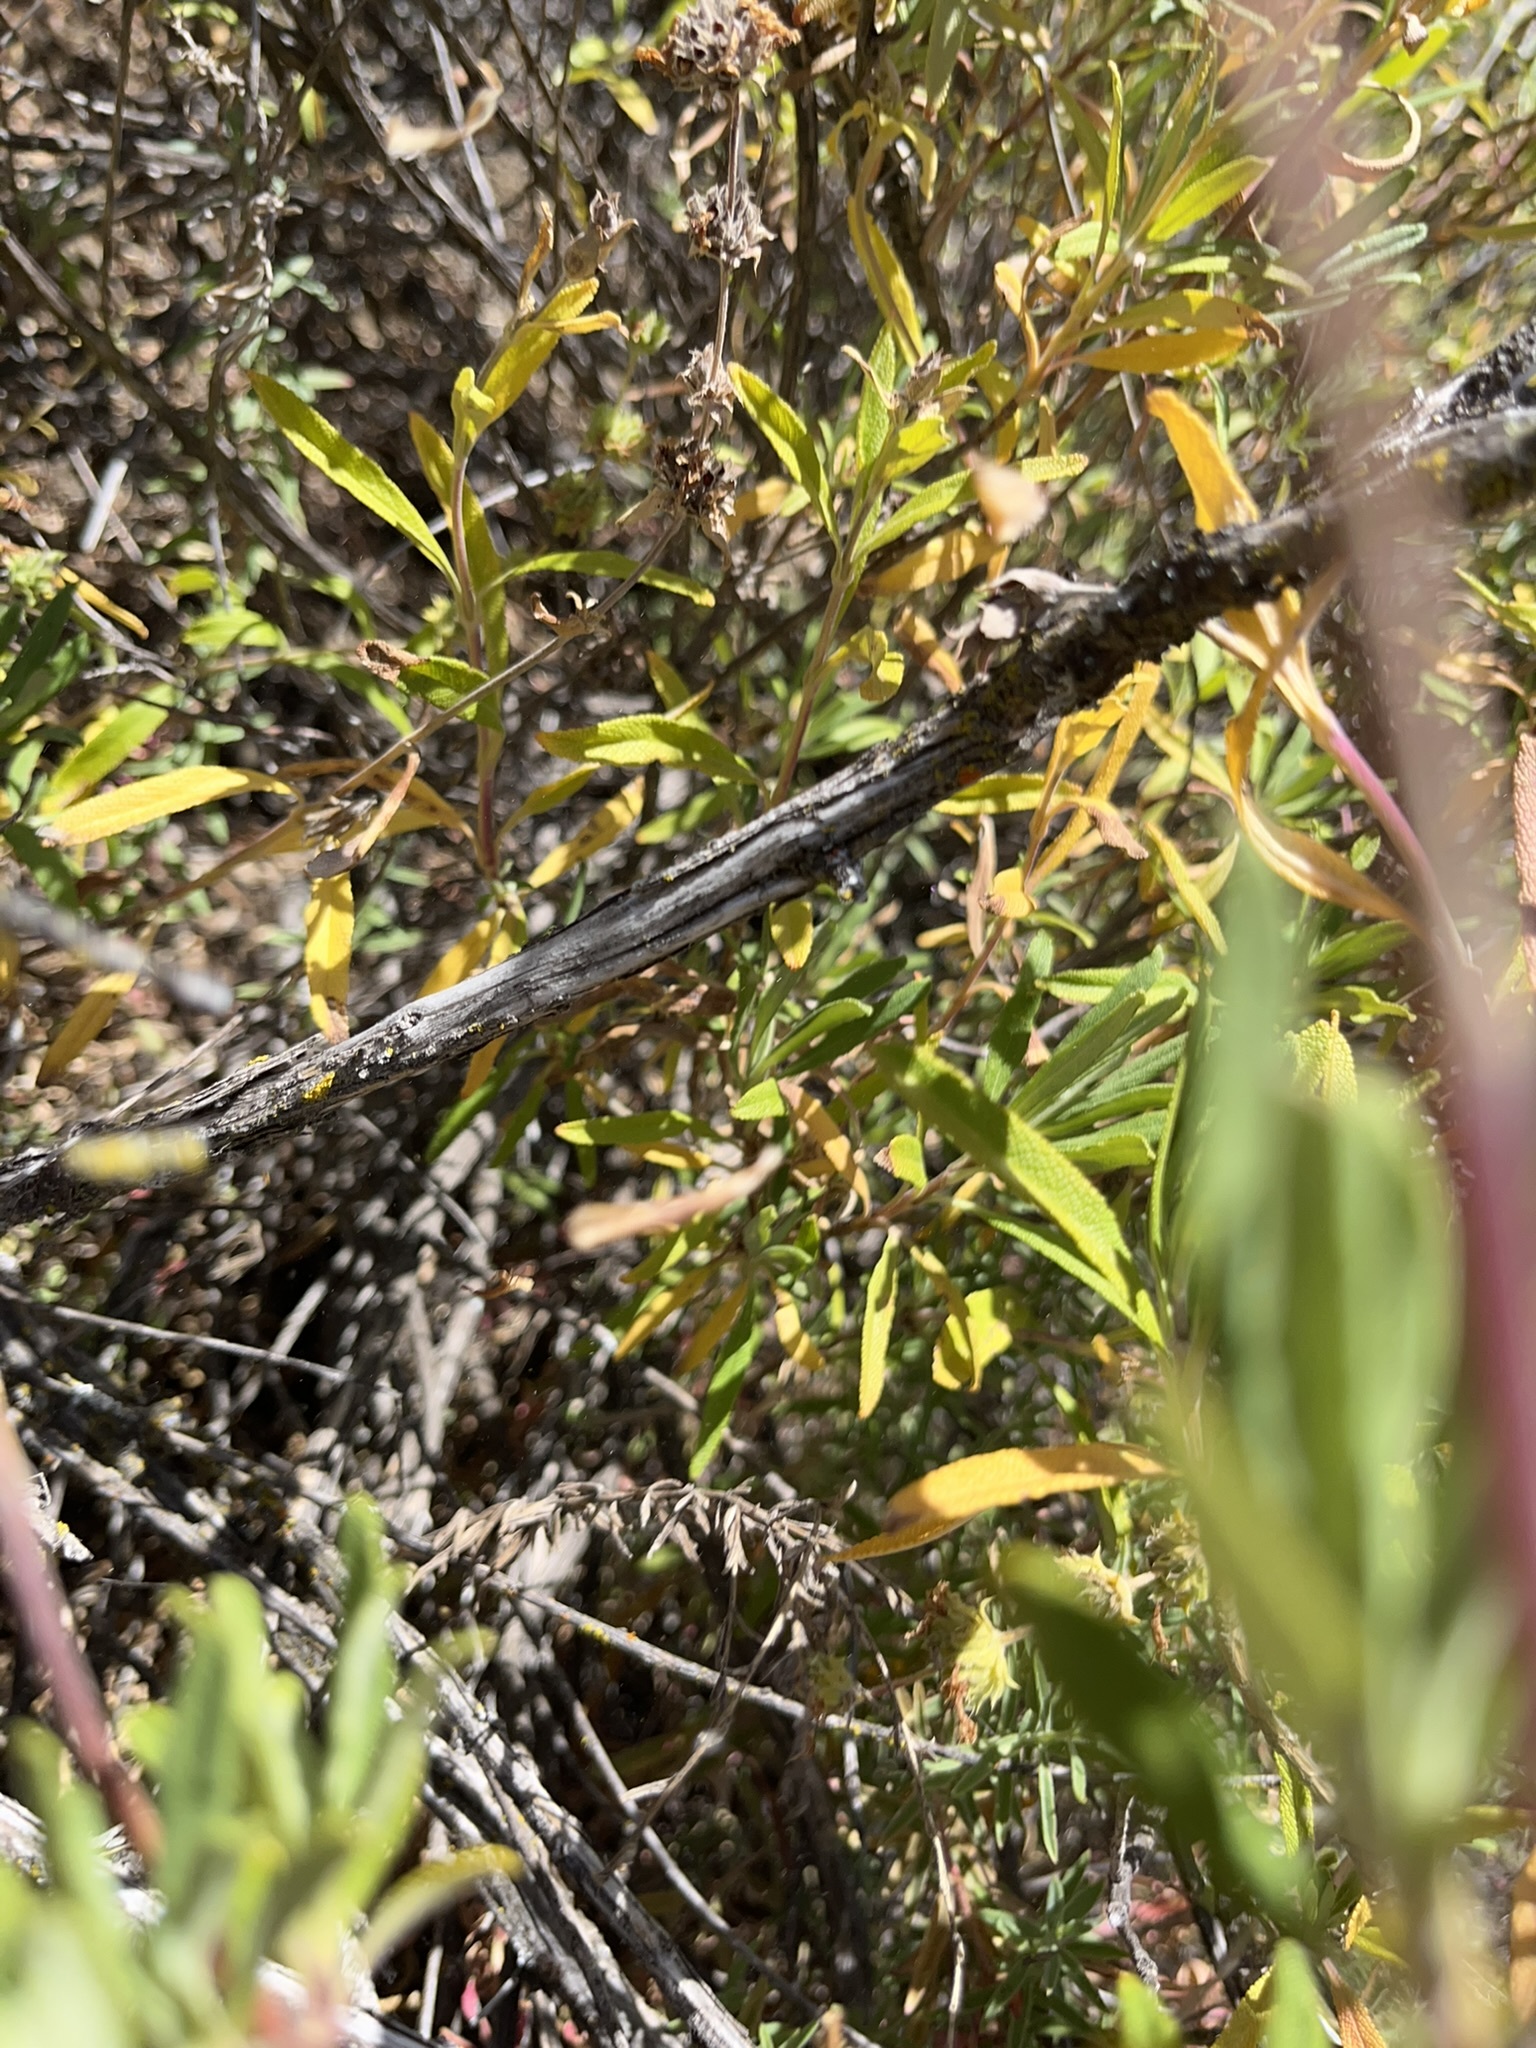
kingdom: Plantae
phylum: Tracheophyta
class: Magnoliopsida
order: Lamiales
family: Lamiaceae
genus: Salvia
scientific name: Salvia mellifera
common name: Black sage
